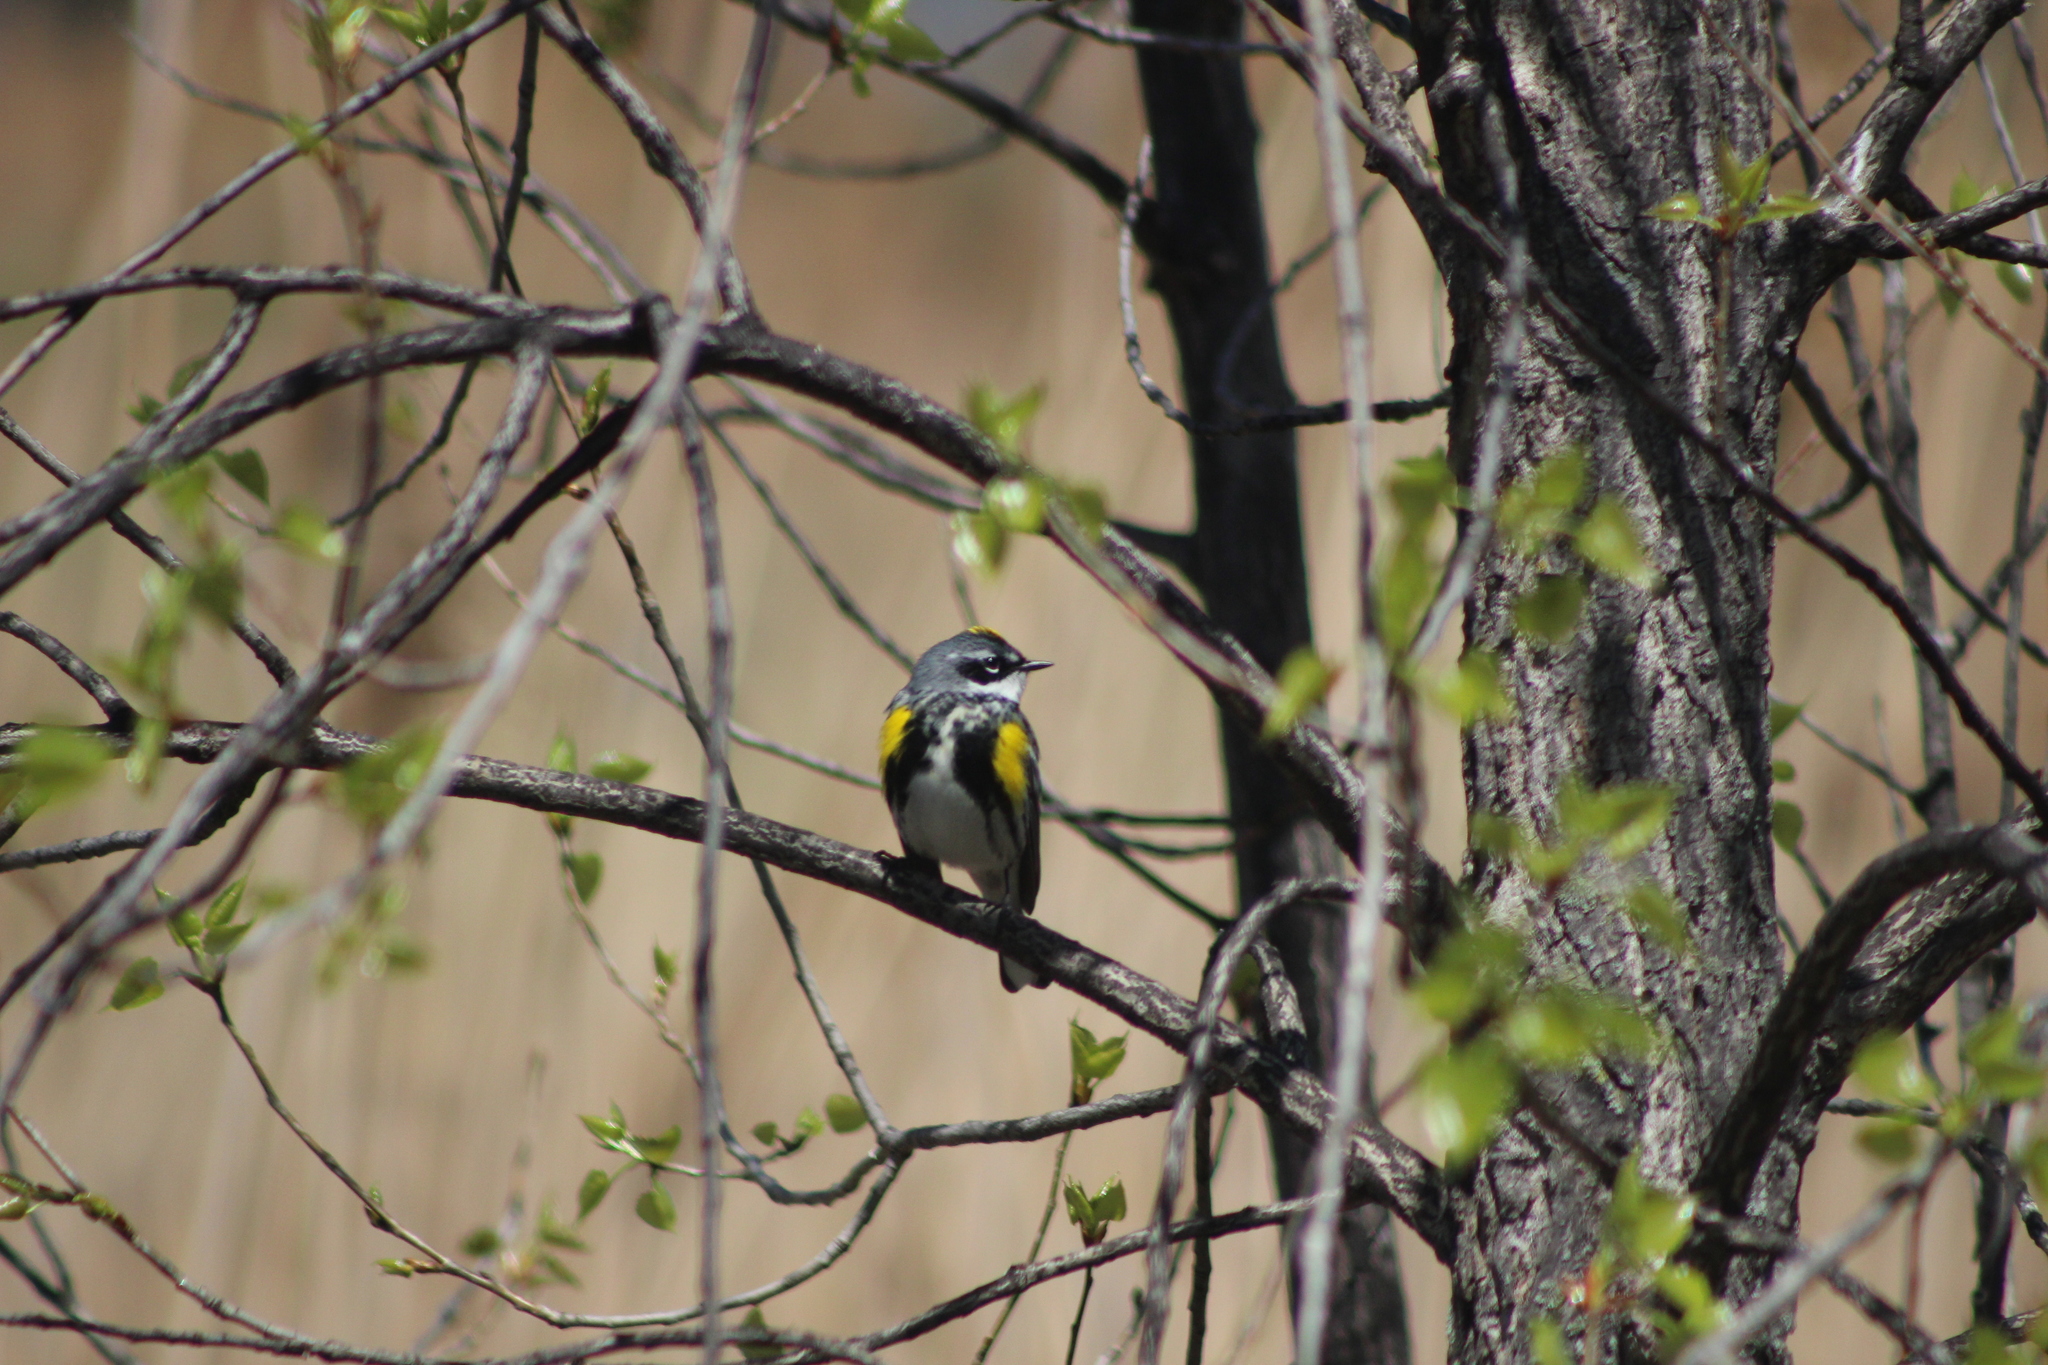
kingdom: Animalia
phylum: Chordata
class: Aves
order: Passeriformes
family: Parulidae
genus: Setophaga
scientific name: Setophaga coronata
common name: Myrtle warbler
